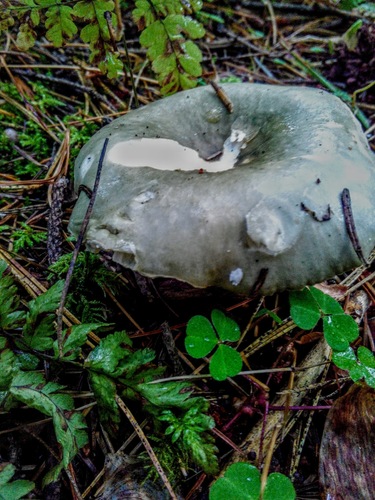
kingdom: Fungi
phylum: Basidiomycota
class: Agaricomycetes
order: Russulales
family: Russulaceae
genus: Russula
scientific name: Russula
